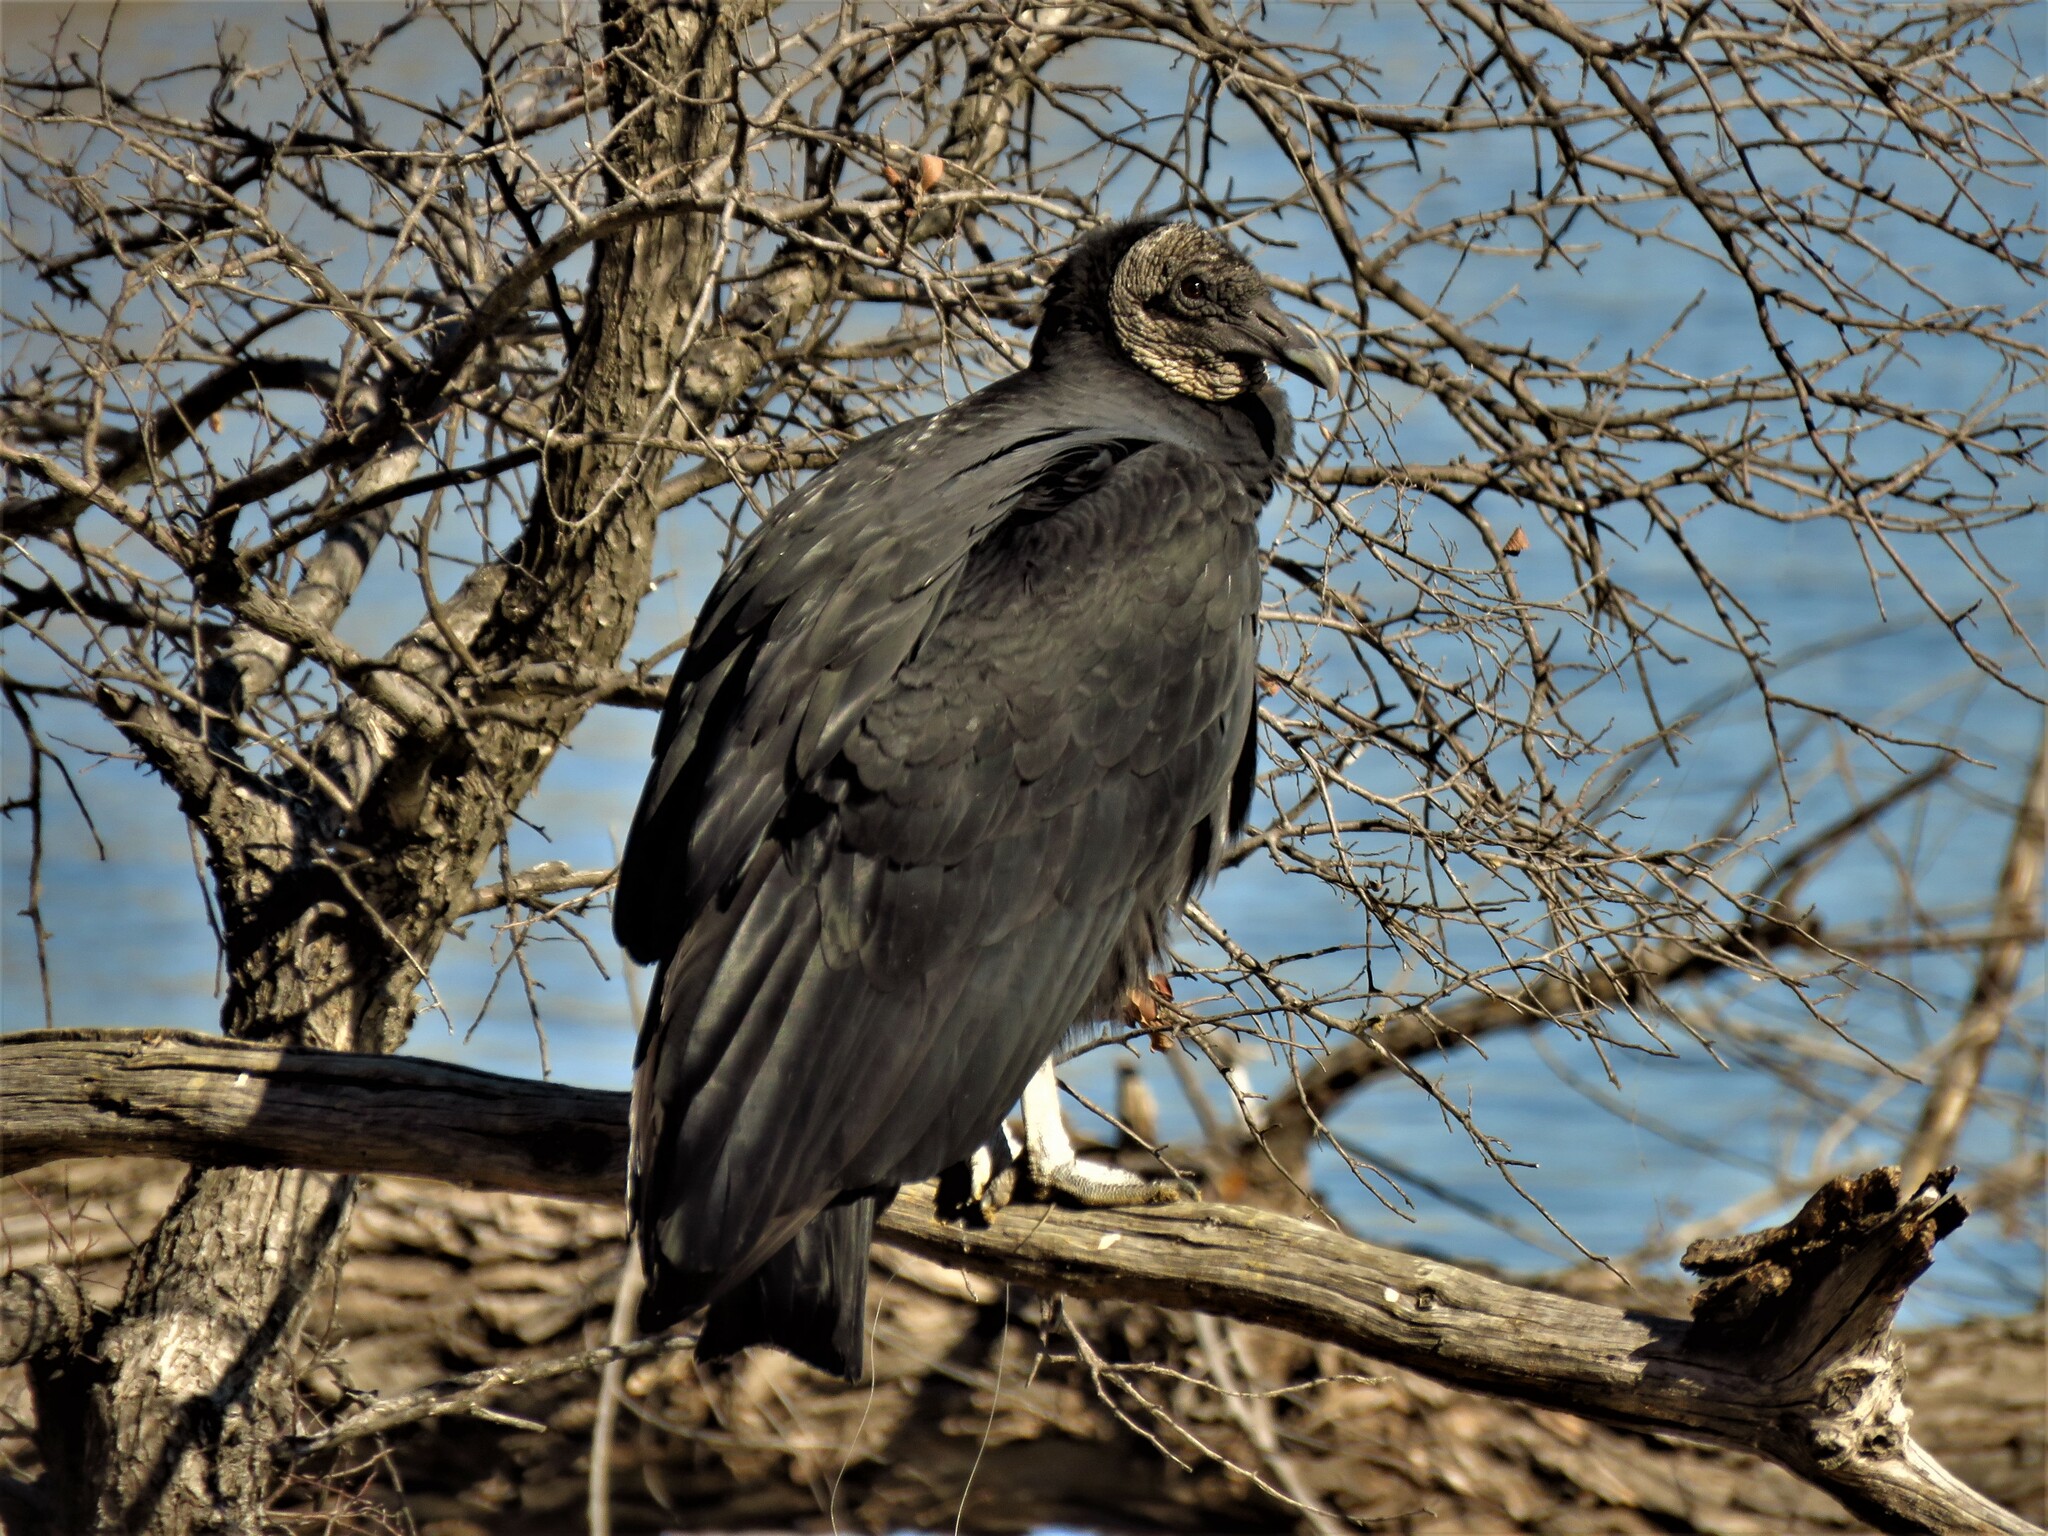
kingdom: Animalia
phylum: Chordata
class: Aves
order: Accipitriformes
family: Cathartidae
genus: Coragyps
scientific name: Coragyps atratus
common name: Black vulture
